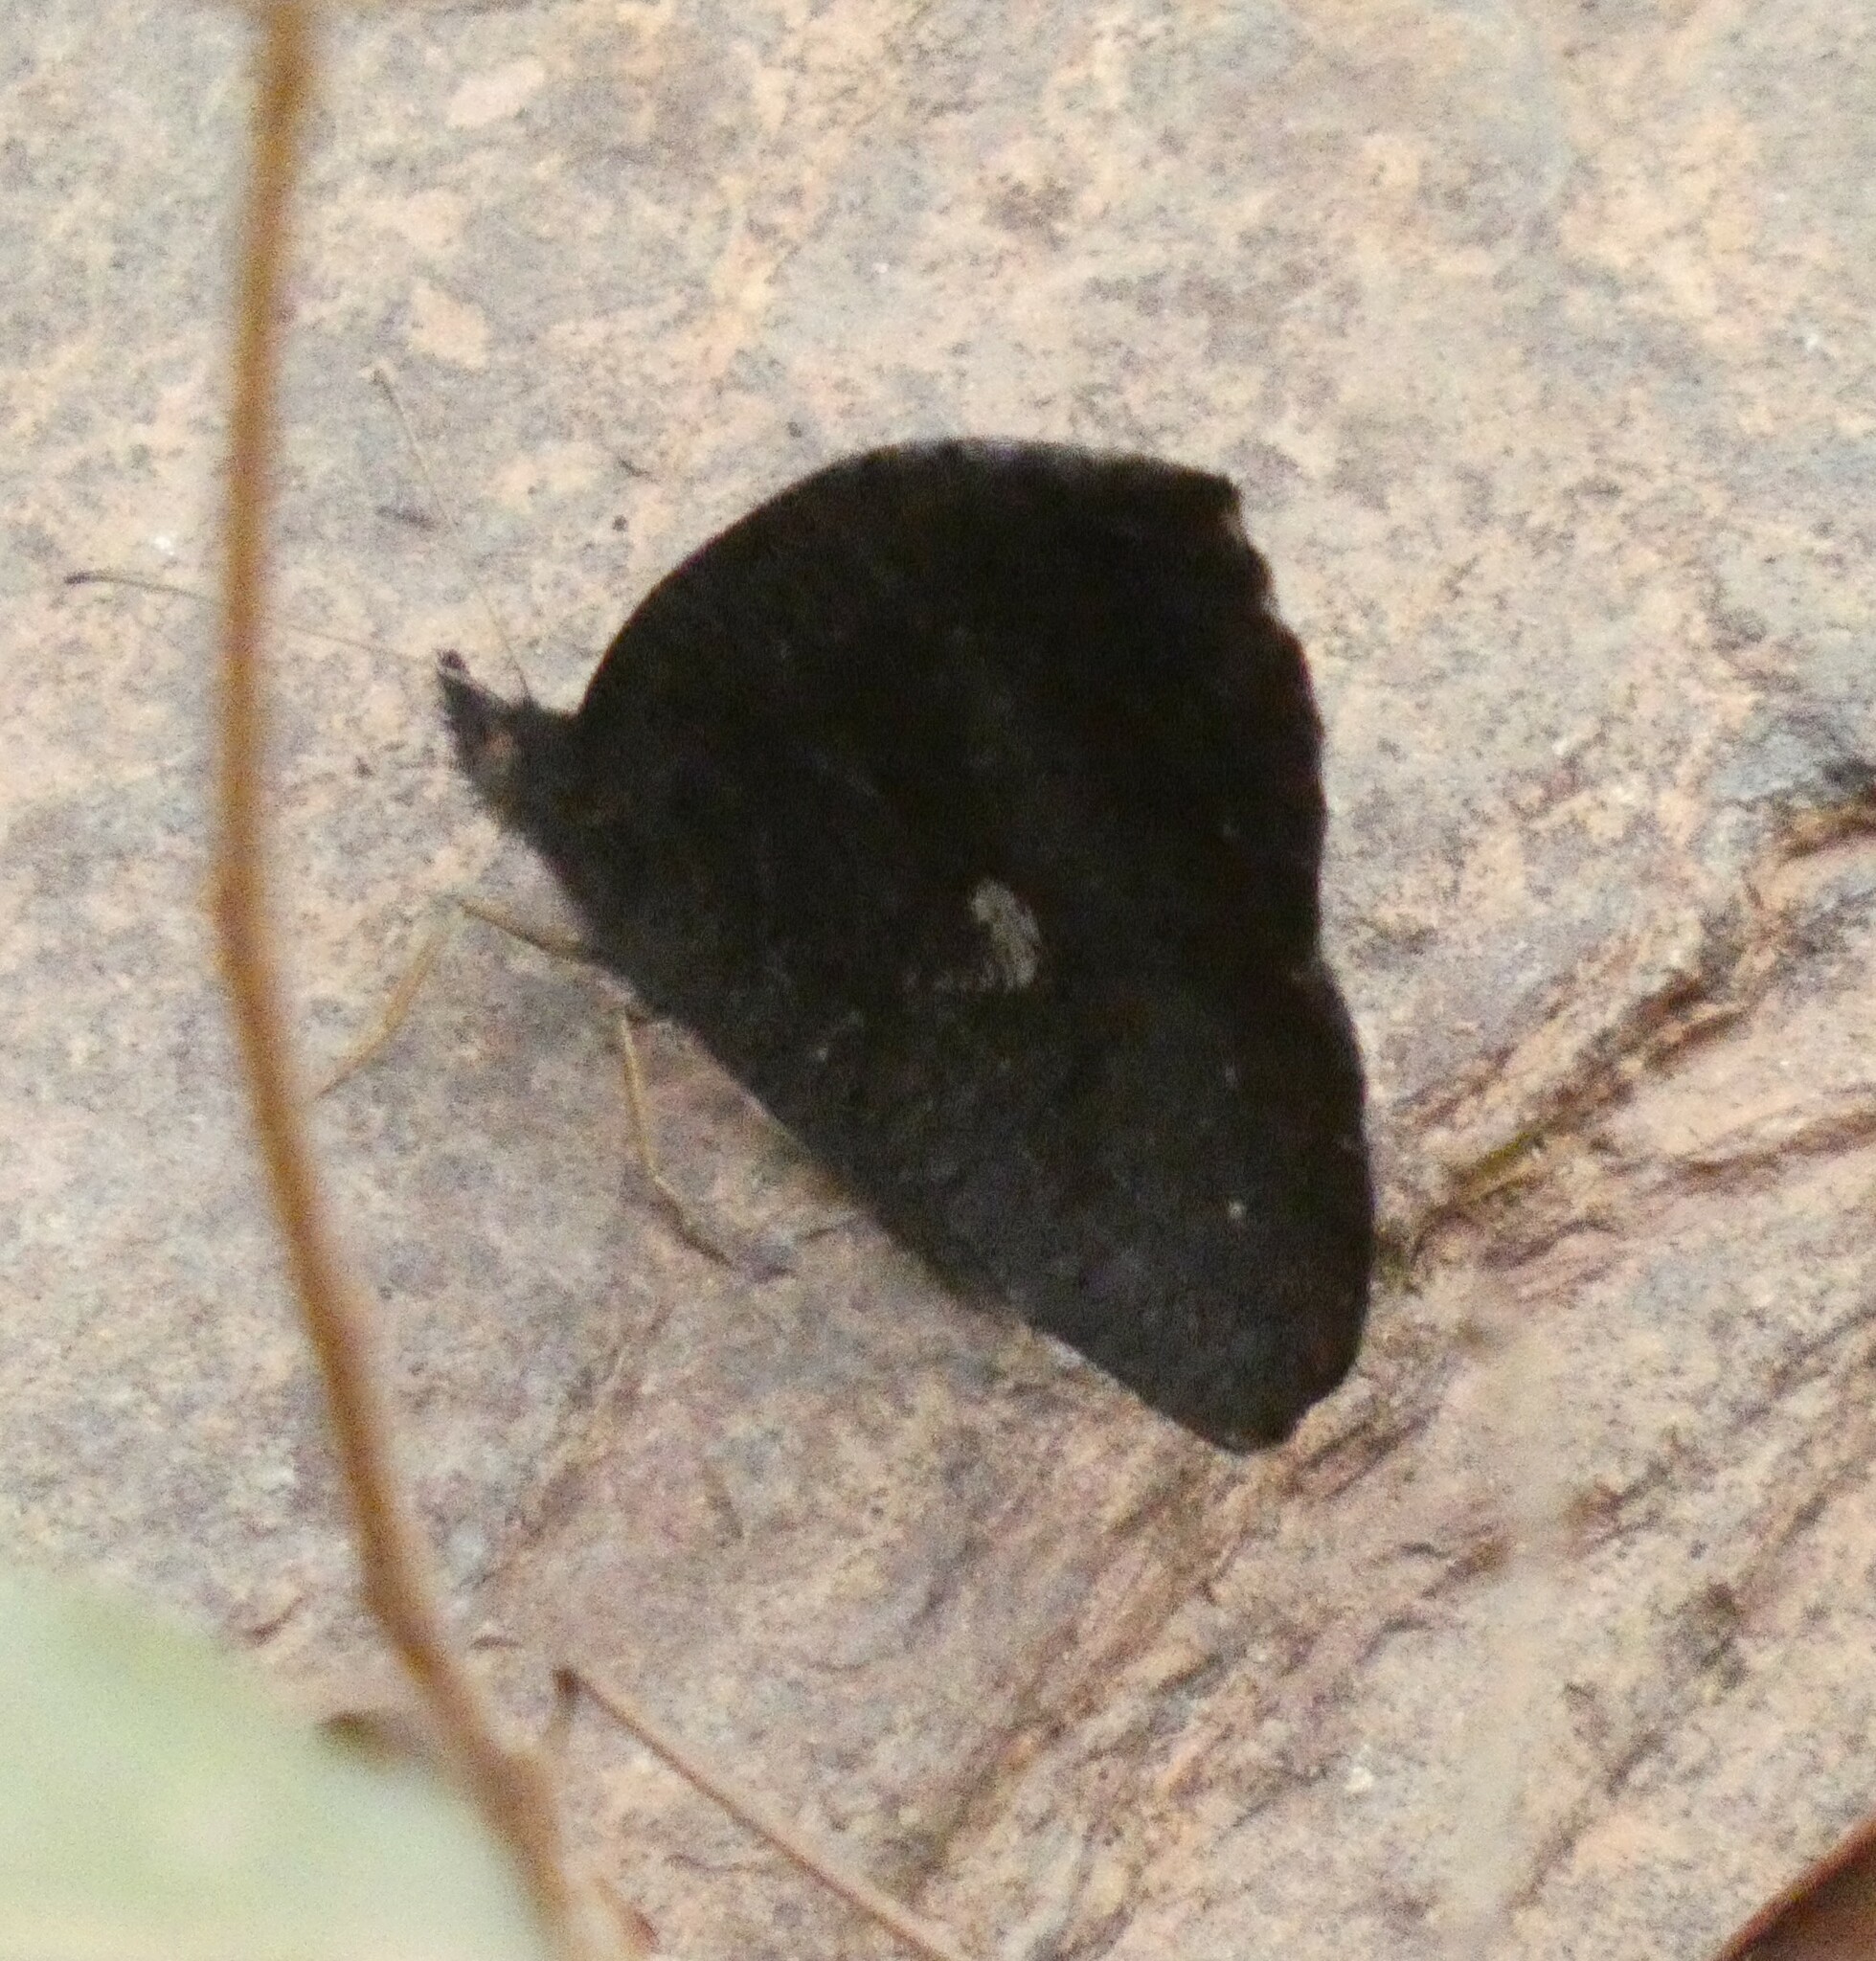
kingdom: Animalia
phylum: Arthropoda
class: Insecta
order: Lepidoptera
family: Nymphalidae
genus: Godartiana
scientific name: Godartiana muscosa
